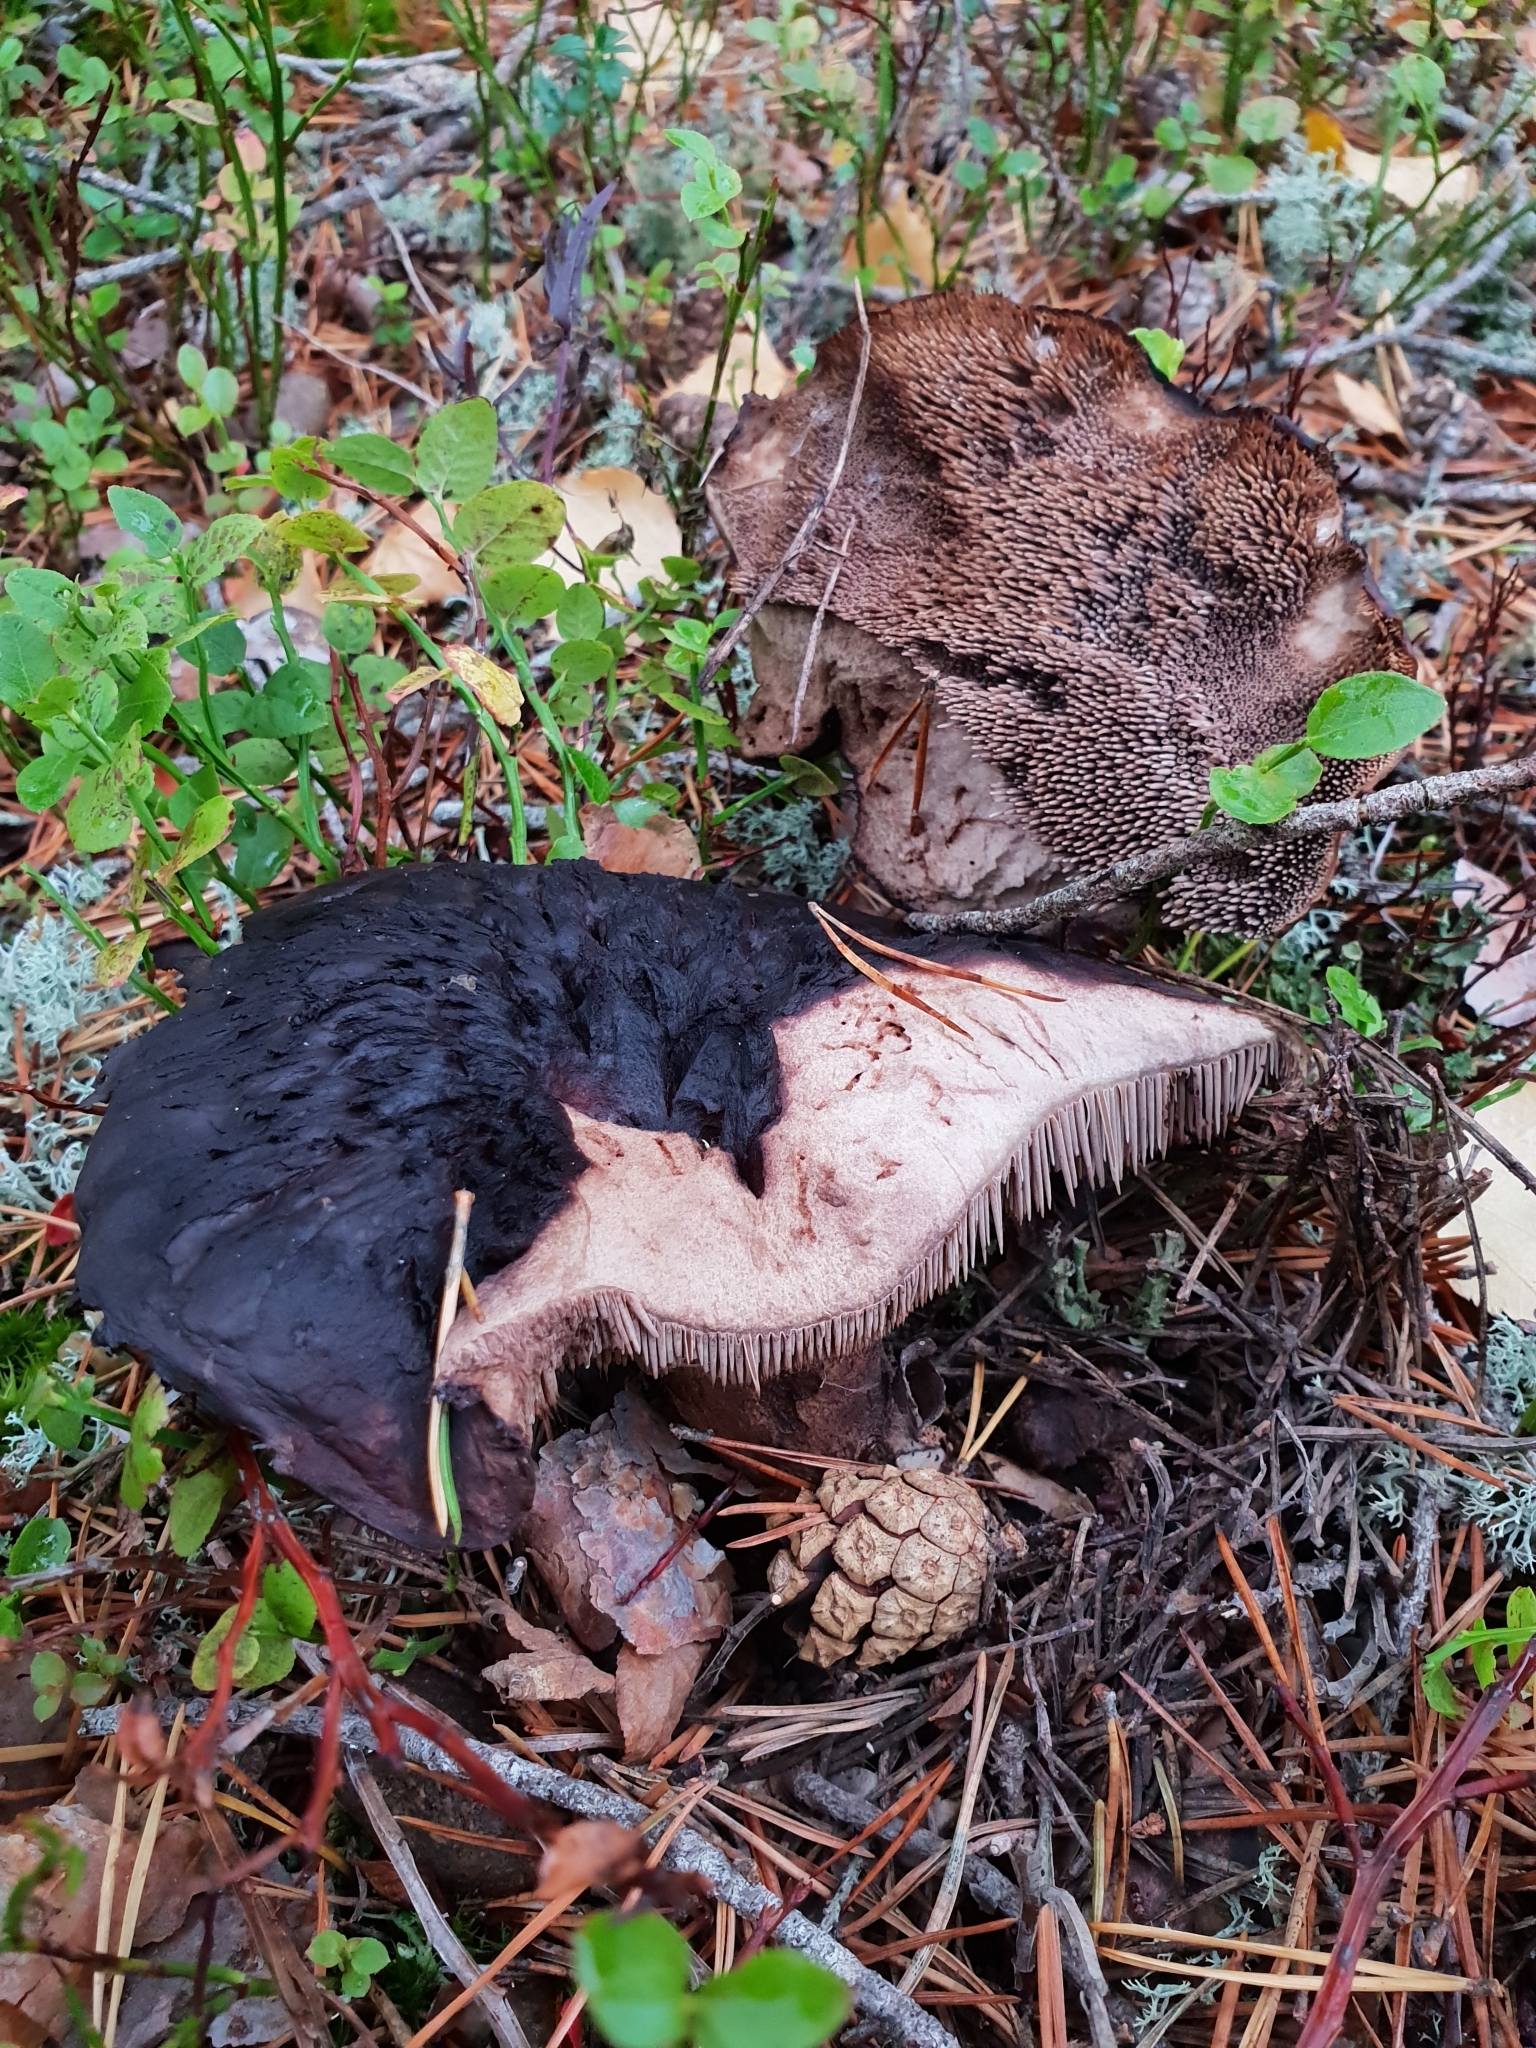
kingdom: Fungi
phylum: Basidiomycota
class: Agaricomycetes
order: Thelephorales
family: Bankeraceae
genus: Sarcodon
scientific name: Sarcodon squamosus
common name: Scaly tooth
